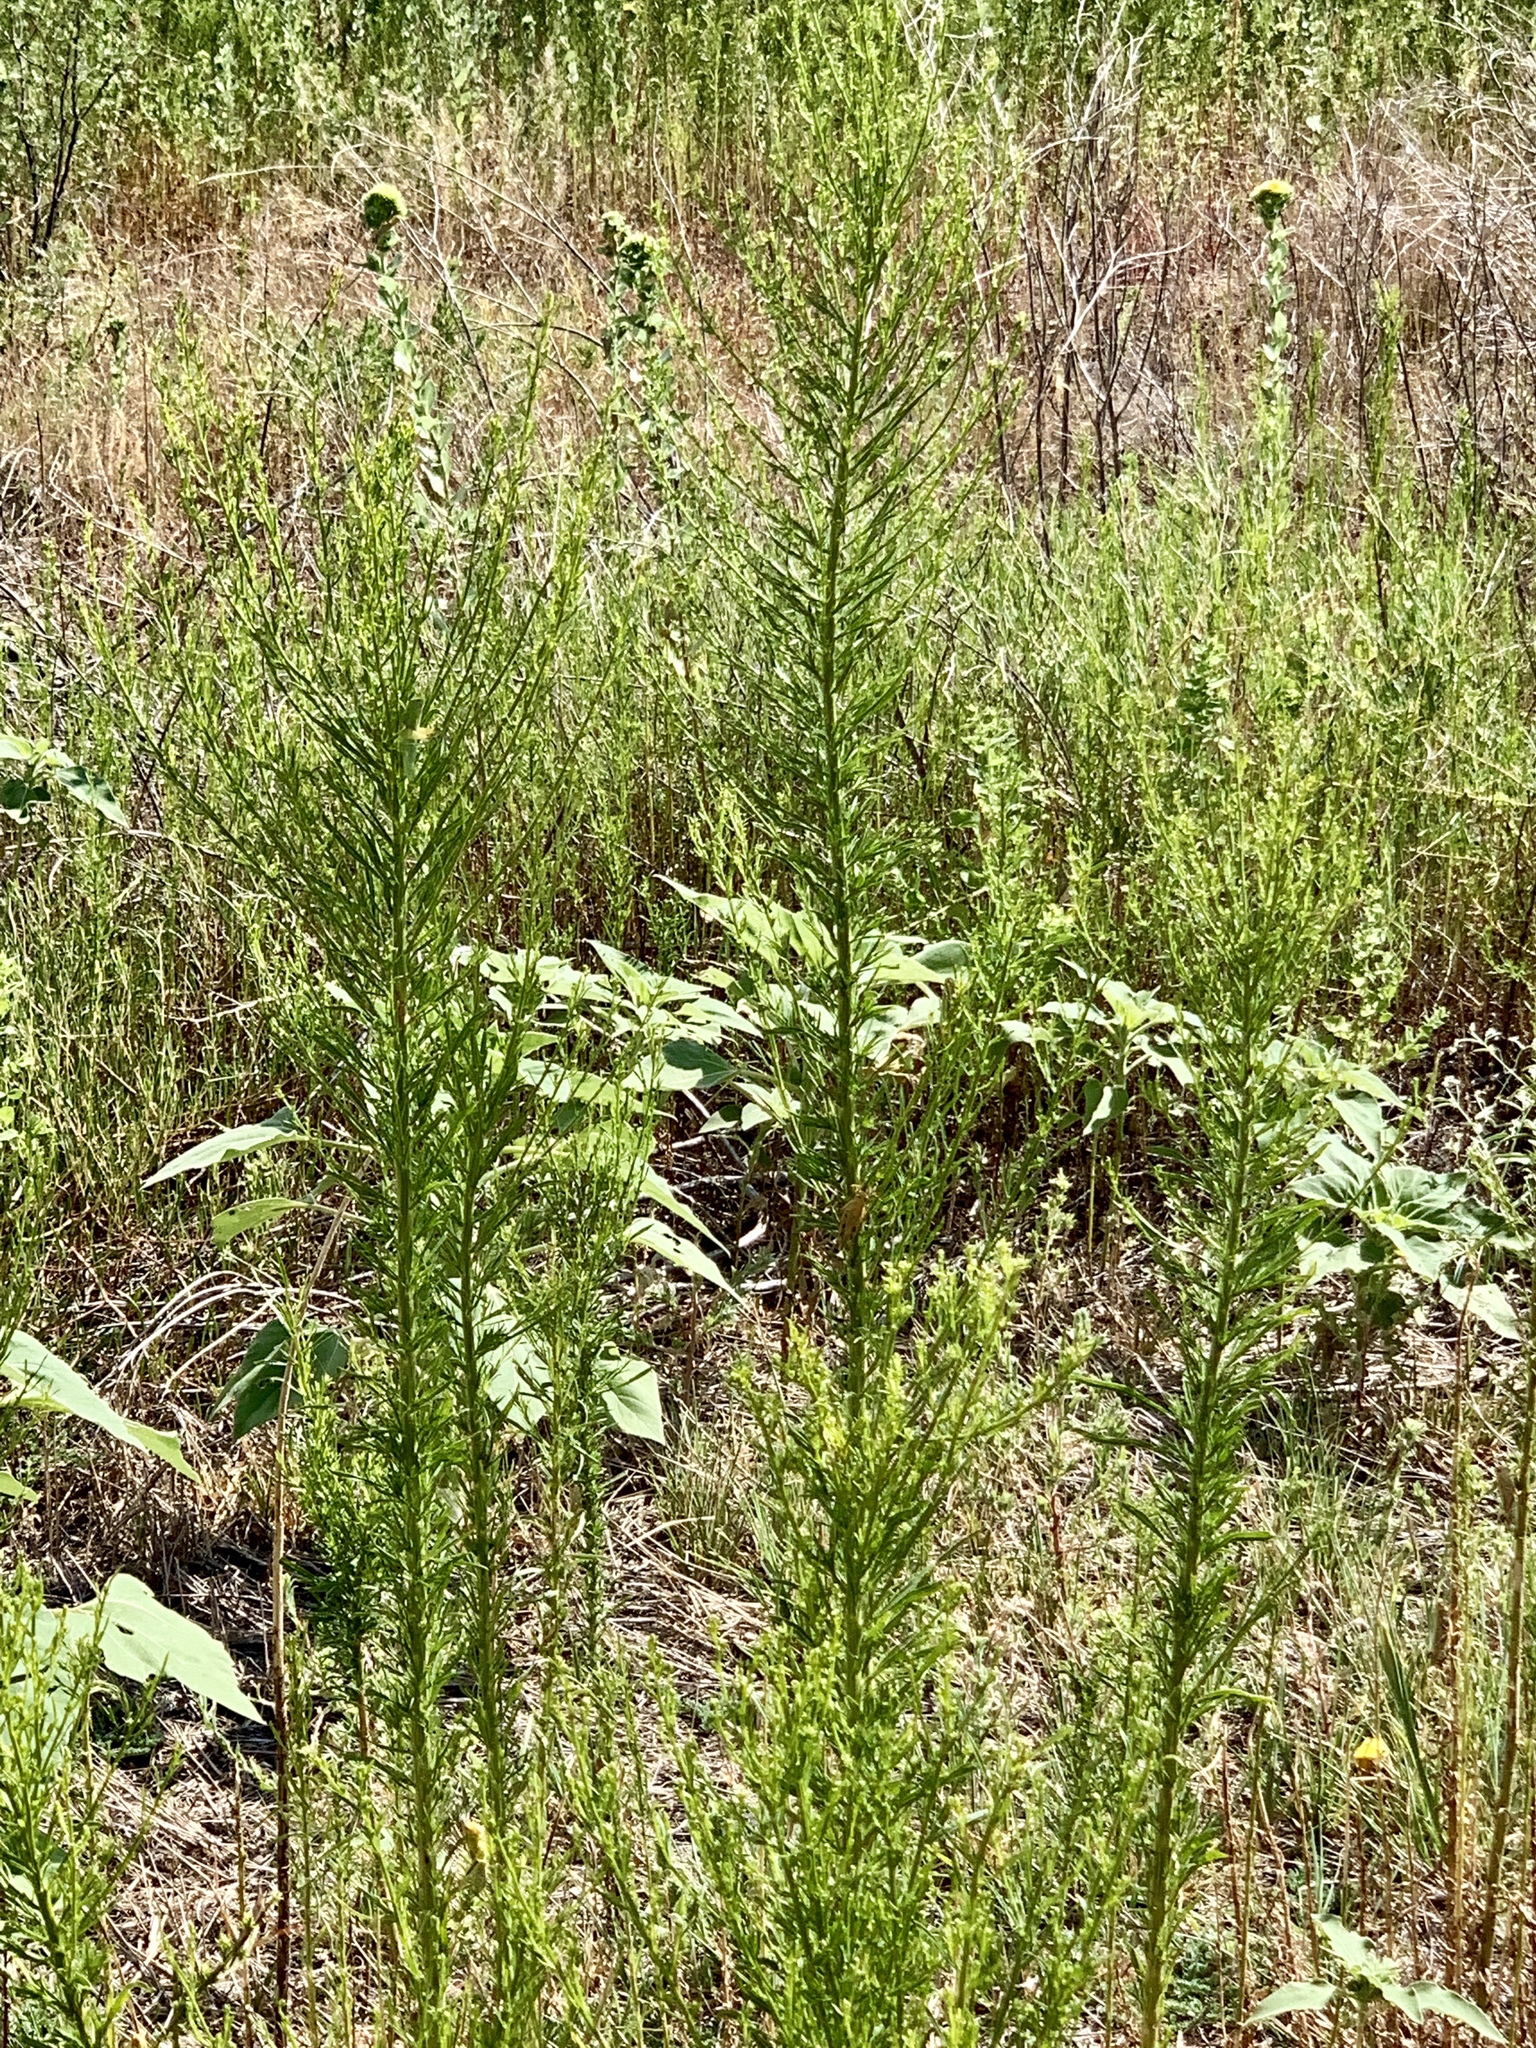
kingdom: Plantae
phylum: Tracheophyta
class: Magnoliopsida
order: Asterales
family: Asteraceae
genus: Erigeron
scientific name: Erigeron canadensis
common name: Canadian fleabane
